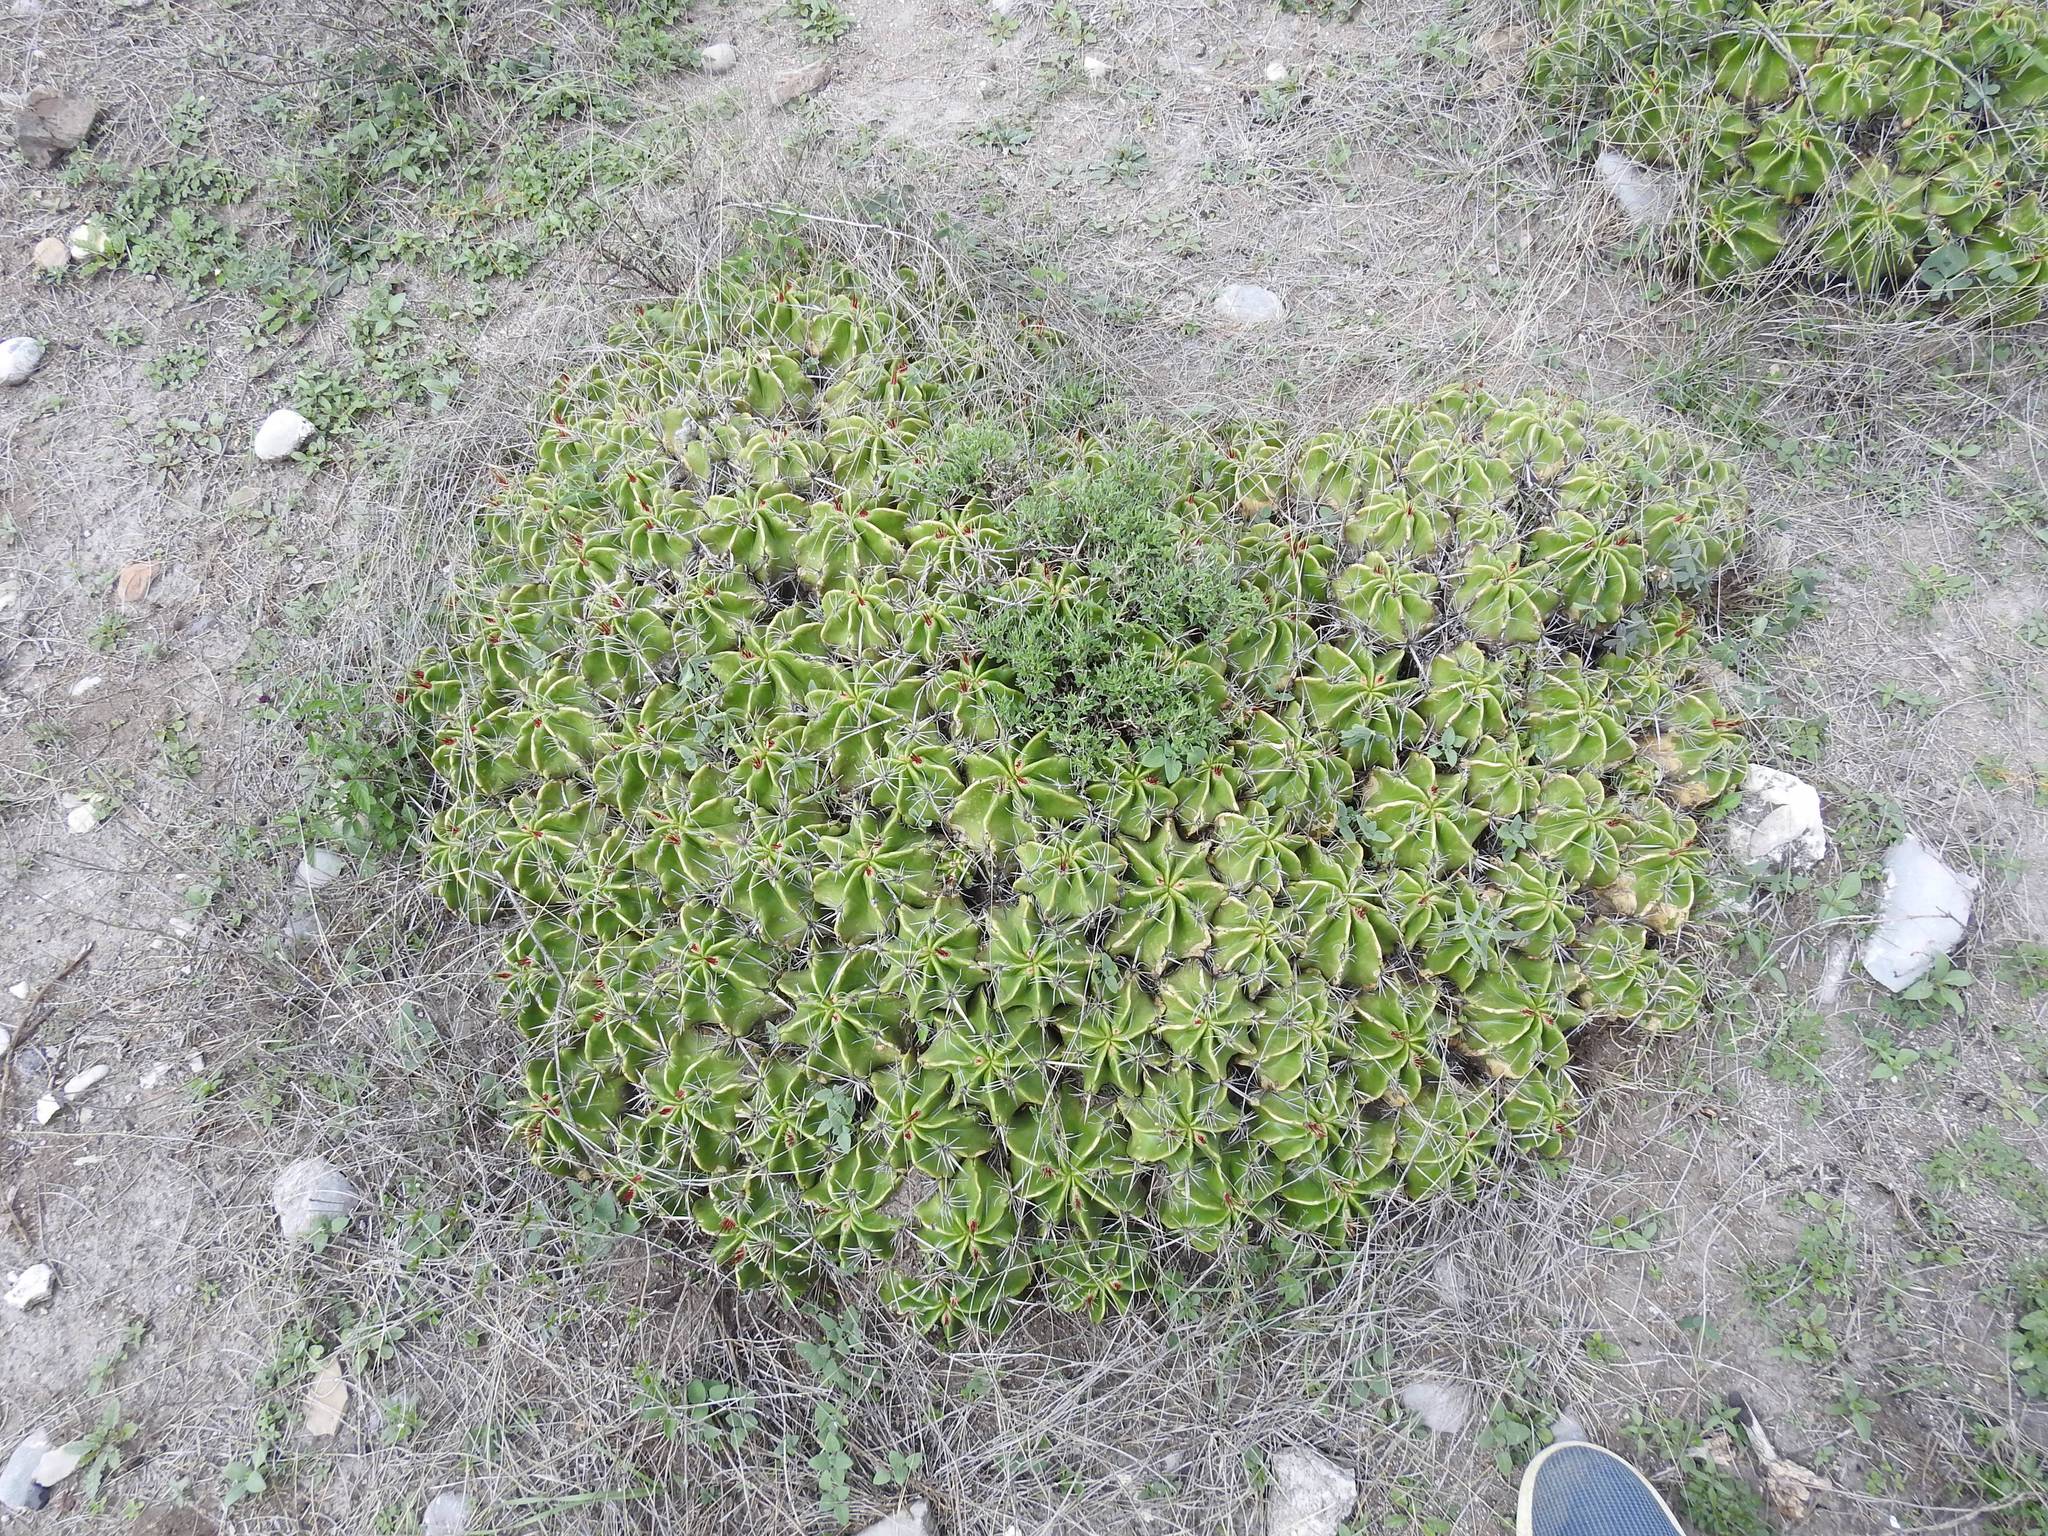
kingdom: Plantae
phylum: Tracheophyta
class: Magnoliopsida
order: Caryophyllales
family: Cactaceae
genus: Ferocactus
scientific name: Ferocactus robustus
